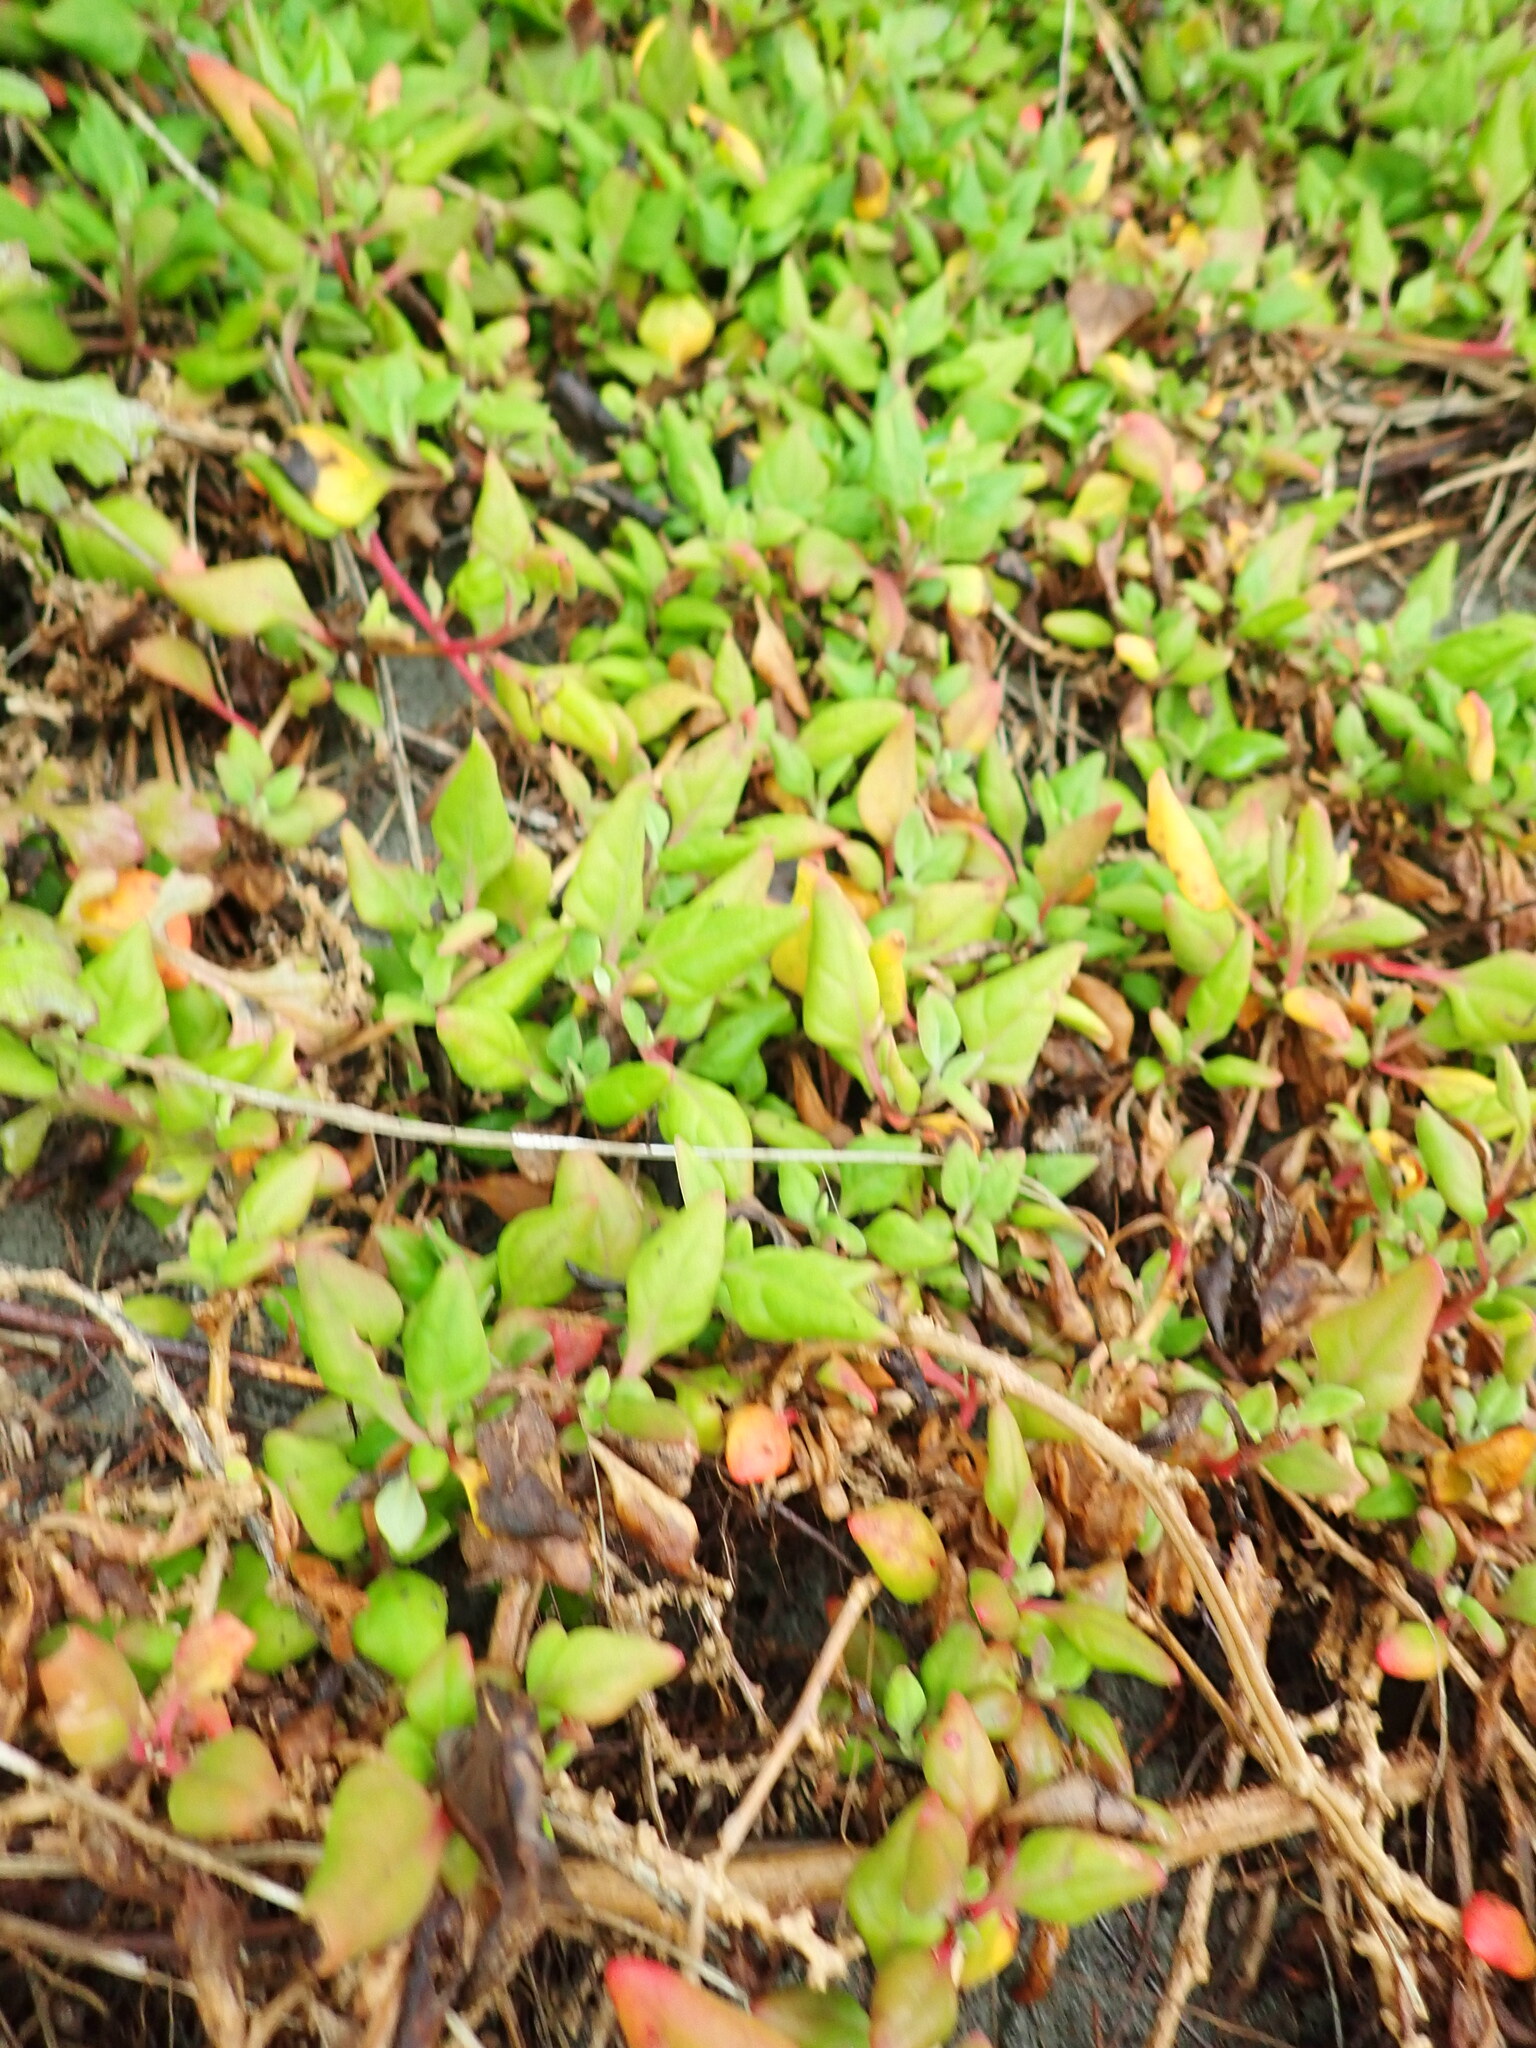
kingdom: Plantae
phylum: Tracheophyta
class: Magnoliopsida
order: Caryophyllales
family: Aizoaceae
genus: Tetragonia
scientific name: Tetragonia implexicoma
